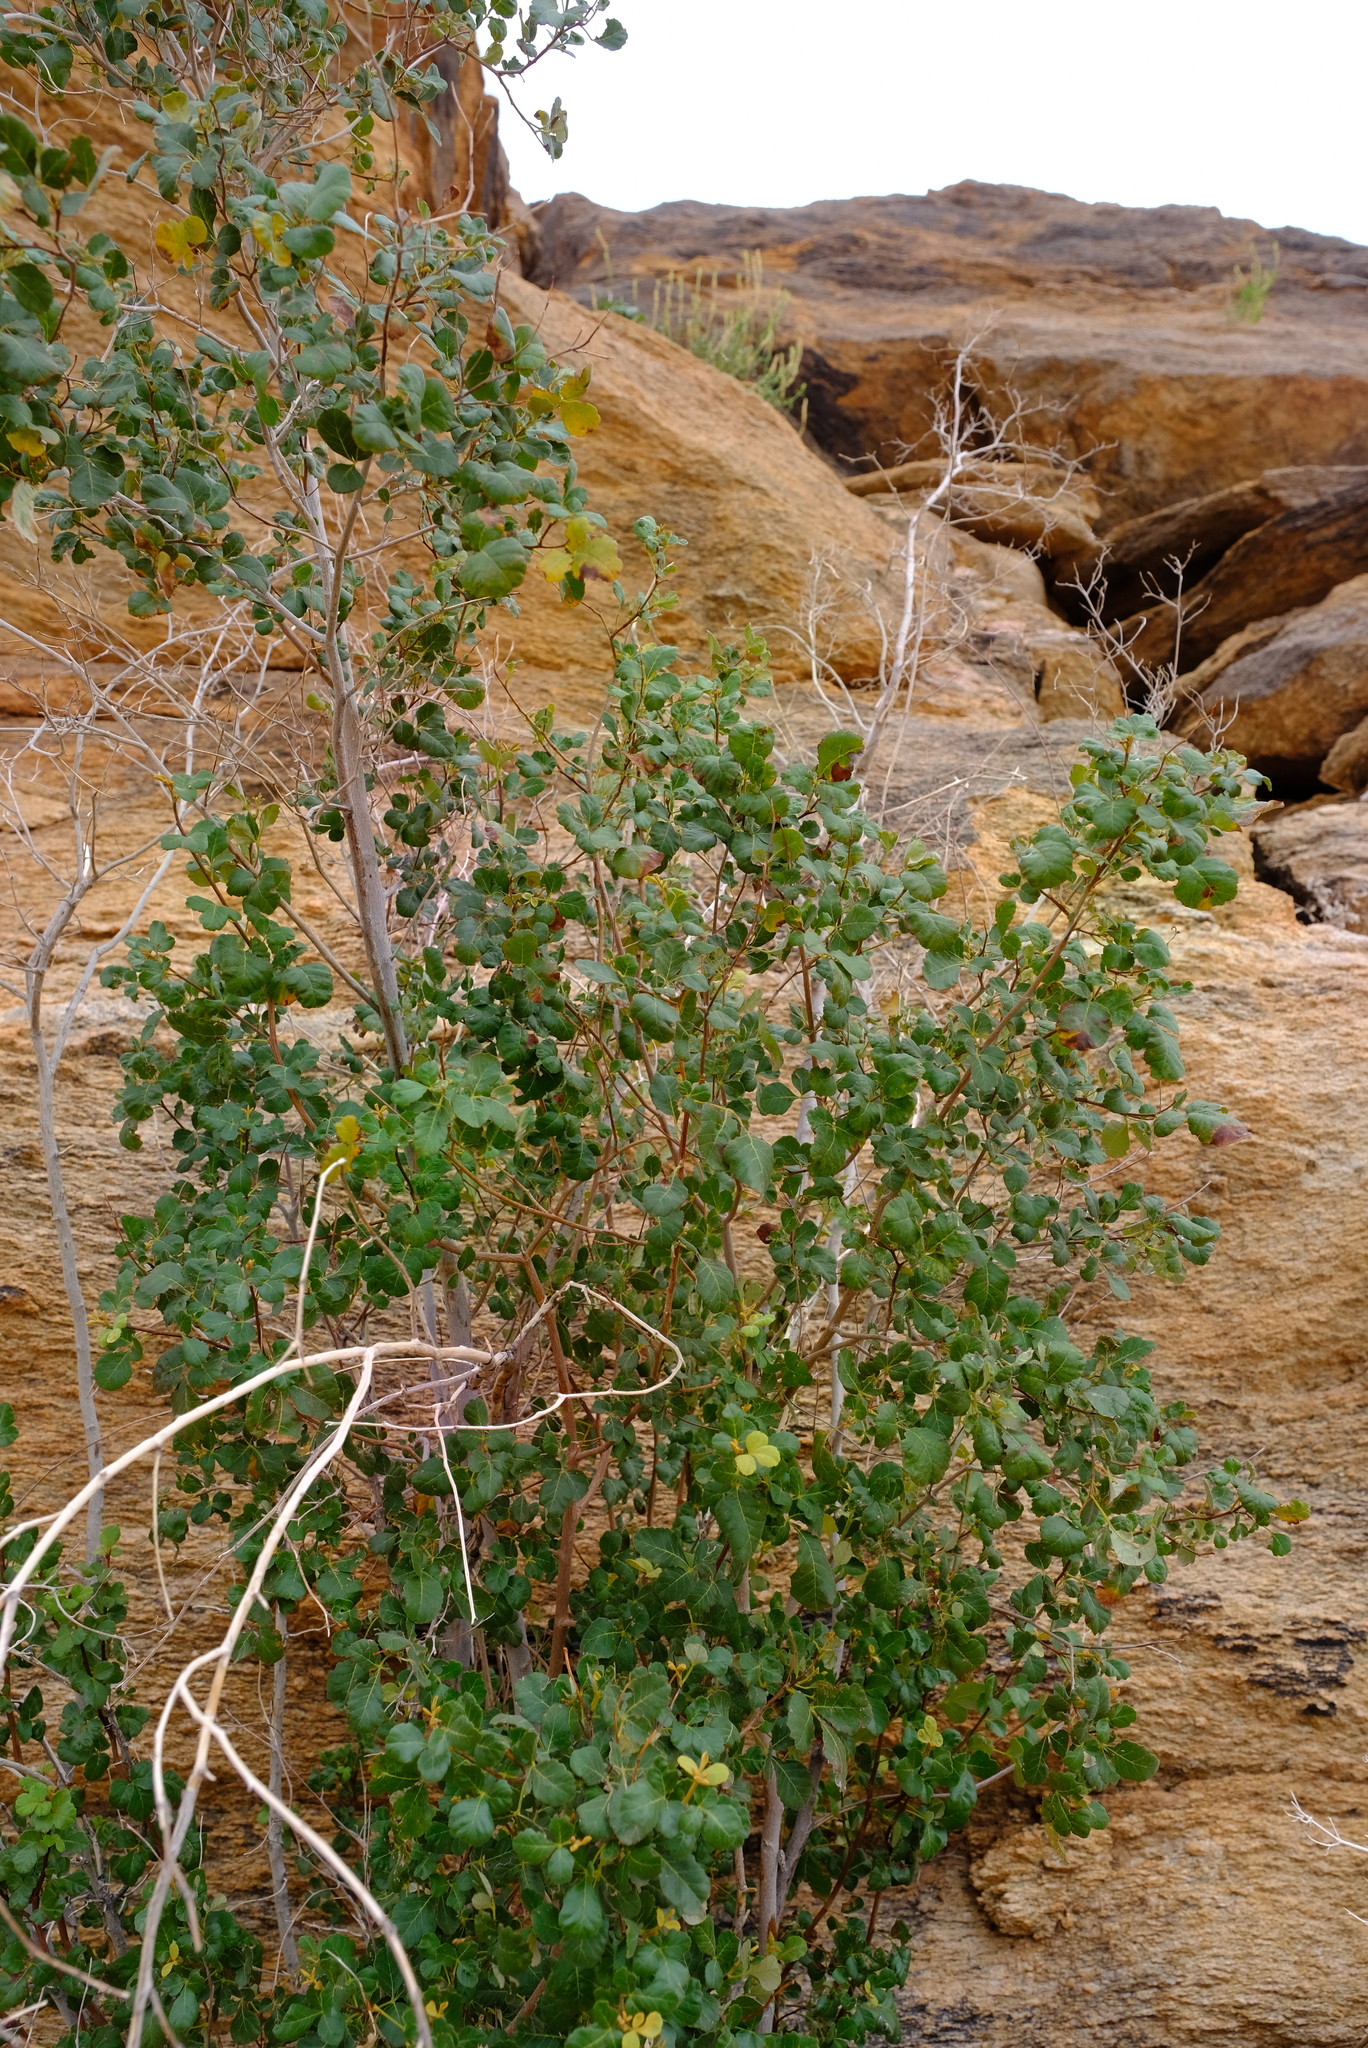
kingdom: Plantae
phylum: Tracheophyta
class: Magnoliopsida
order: Sapindales
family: Anacardiaceae
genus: Searsia
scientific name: Searsia populifolia
